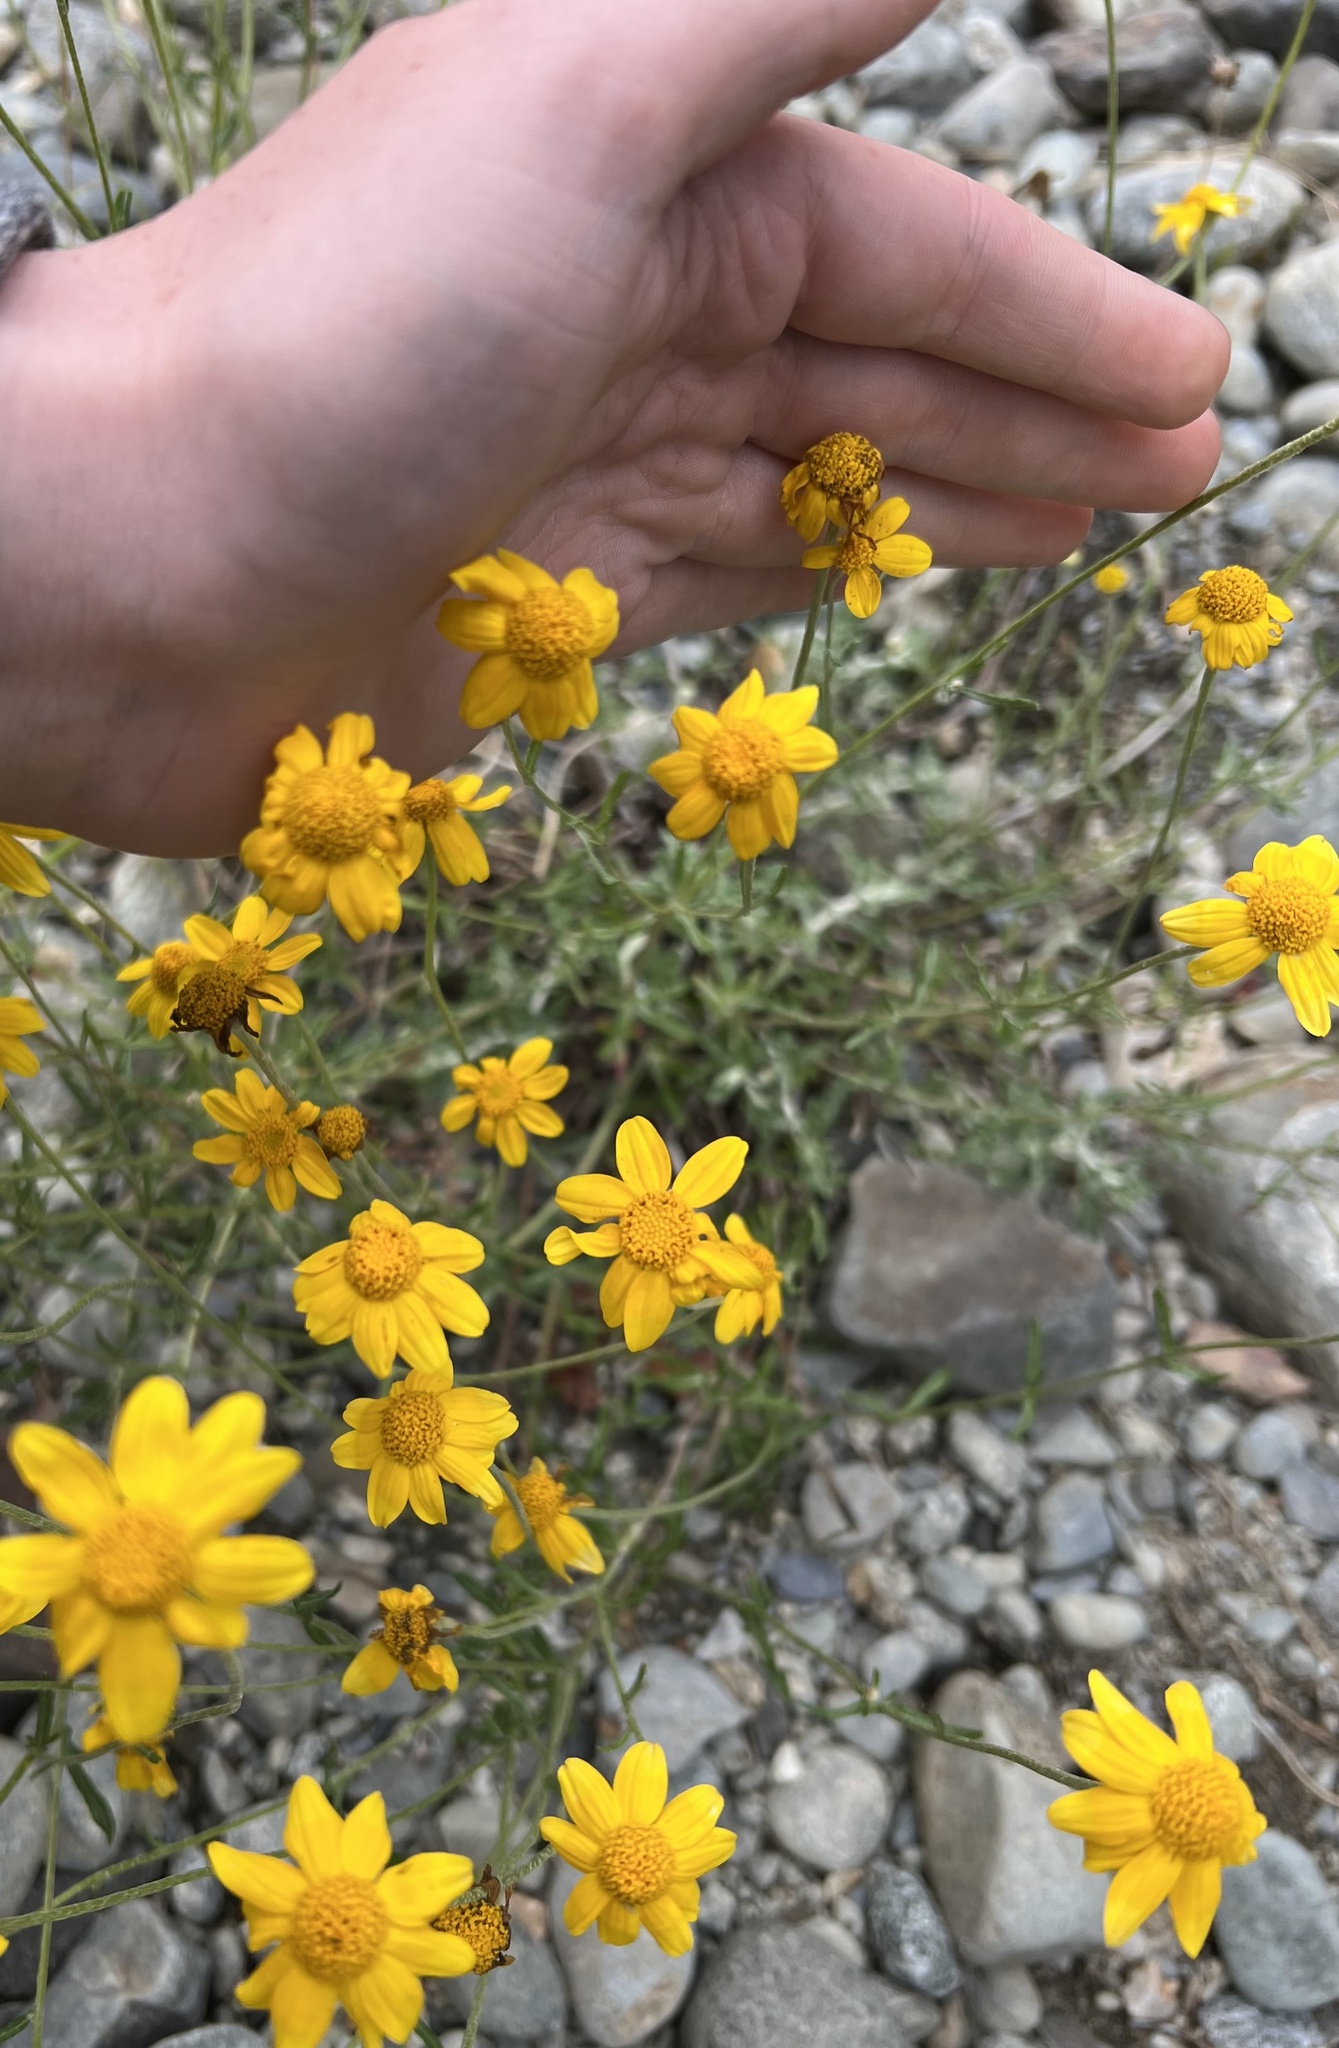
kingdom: Plantae
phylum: Tracheophyta
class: Magnoliopsida
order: Asterales
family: Asteraceae
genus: Eriophyllum
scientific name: Eriophyllum lanatum
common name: Common woolly-sunflower
